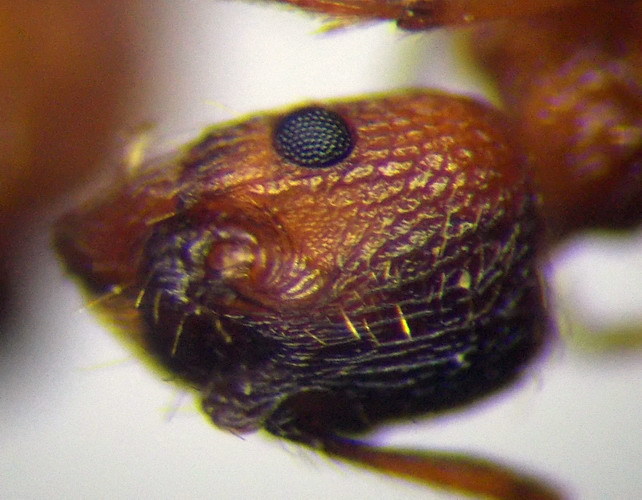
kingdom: Animalia
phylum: Arthropoda
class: Insecta
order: Hymenoptera
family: Formicidae
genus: Myrmica
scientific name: Myrmica curvithorax
